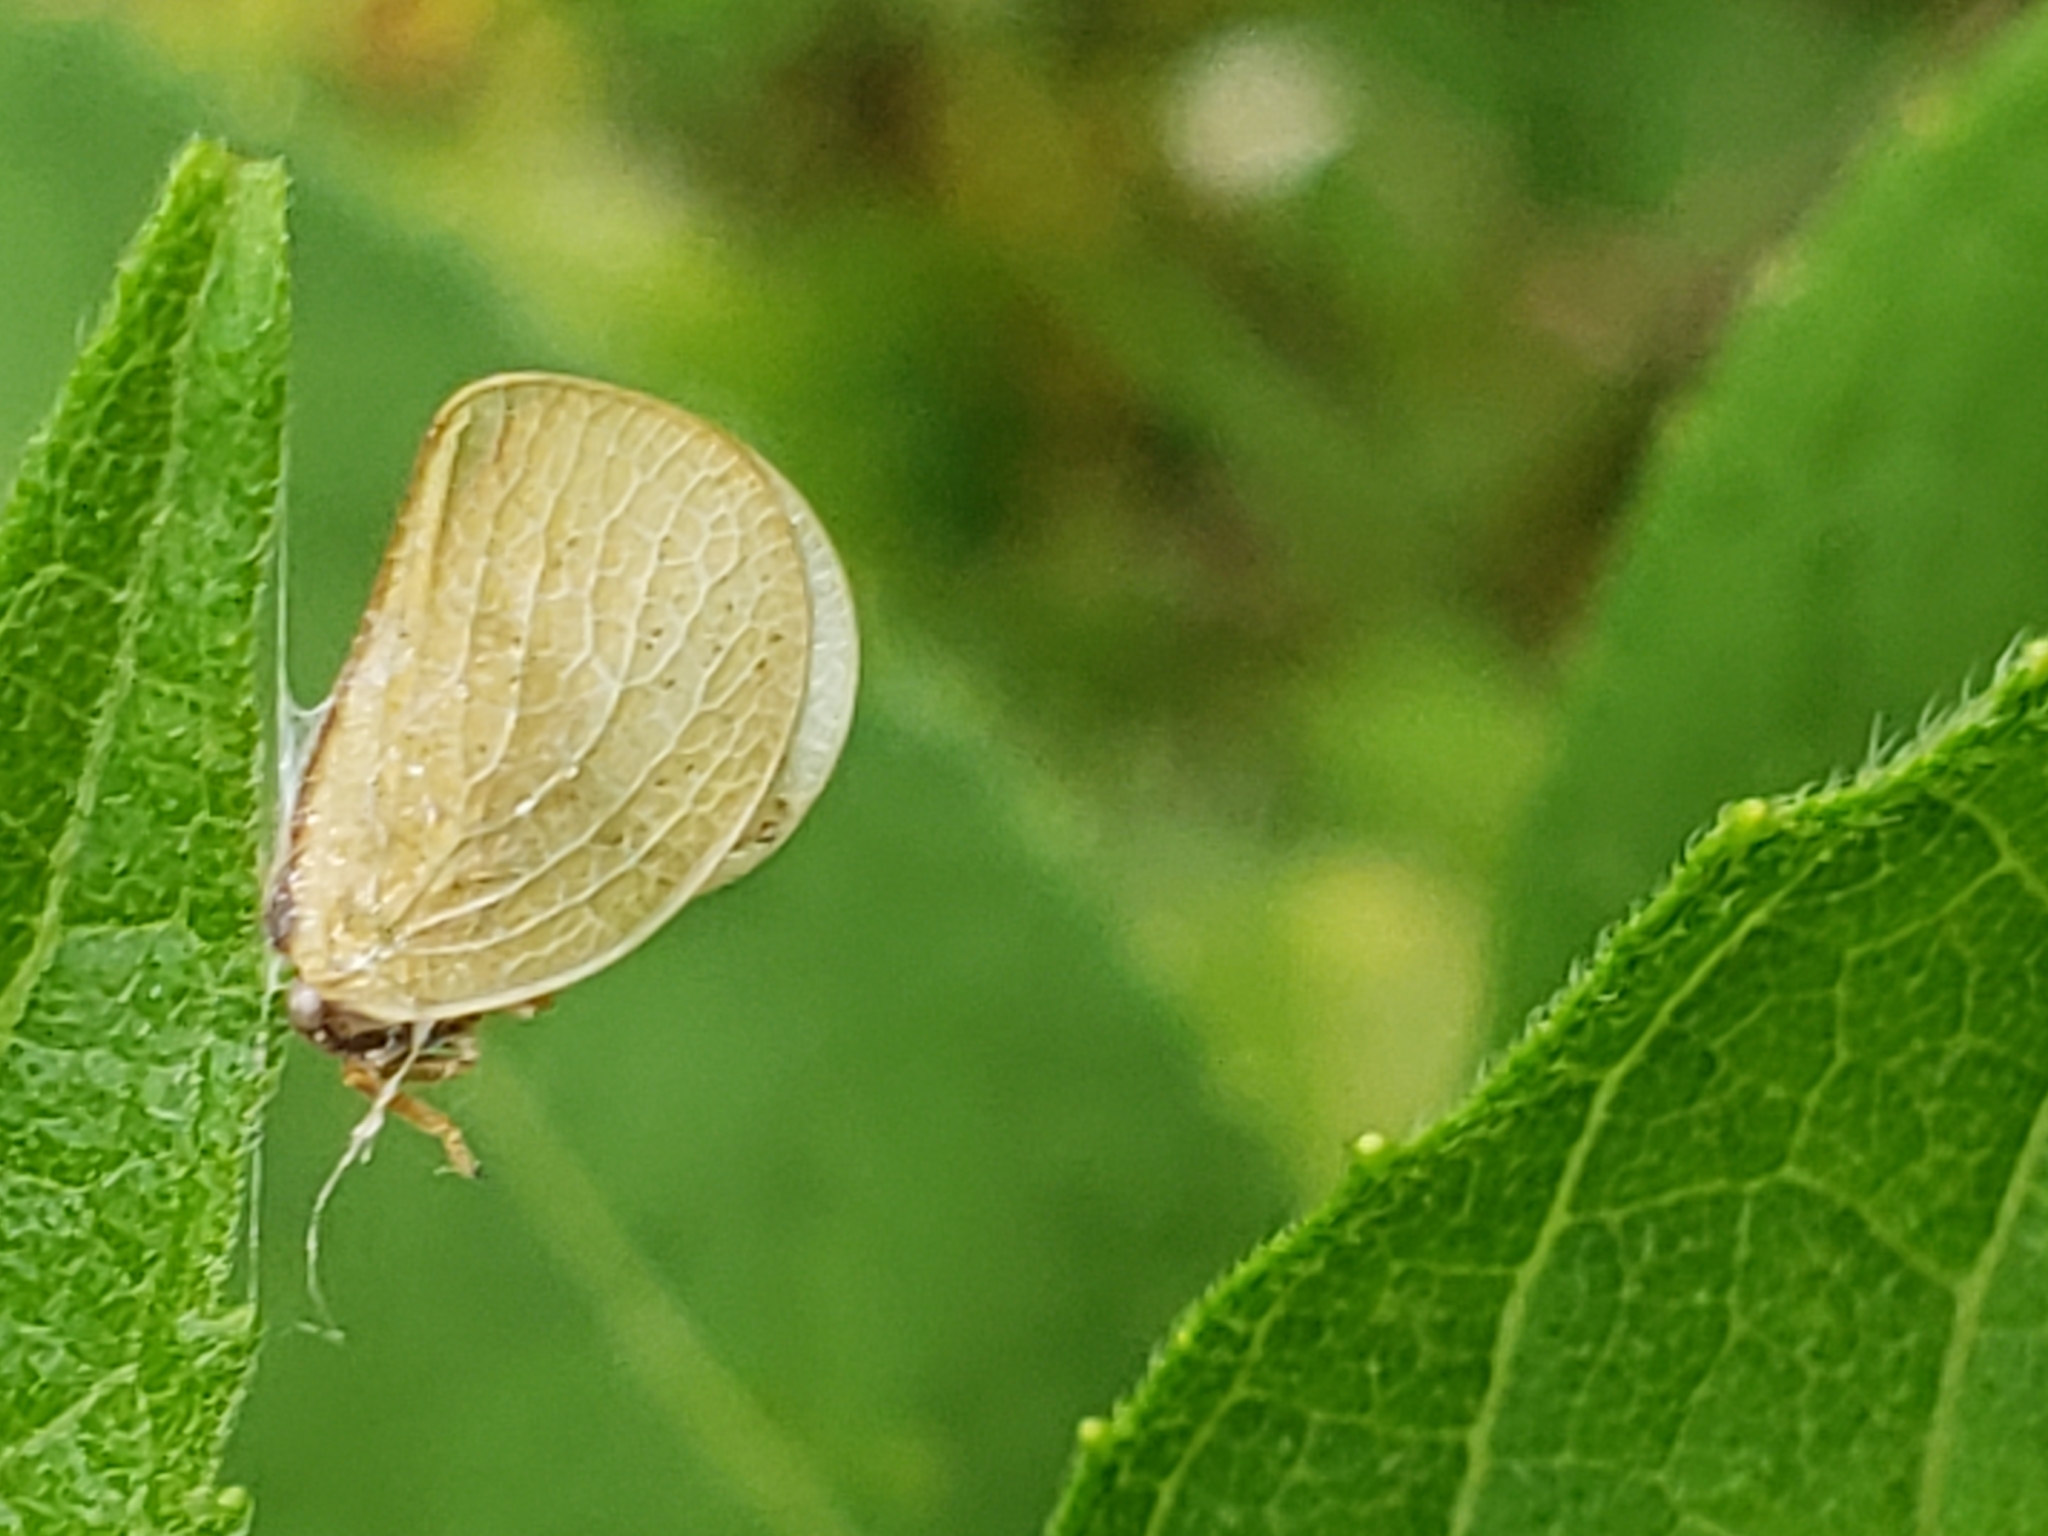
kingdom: Animalia
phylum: Arthropoda
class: Insecta
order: Hemiptera
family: Acanaloniidae
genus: Acanalonia
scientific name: Acanalonia bivittata
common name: Two-striped planthopper
